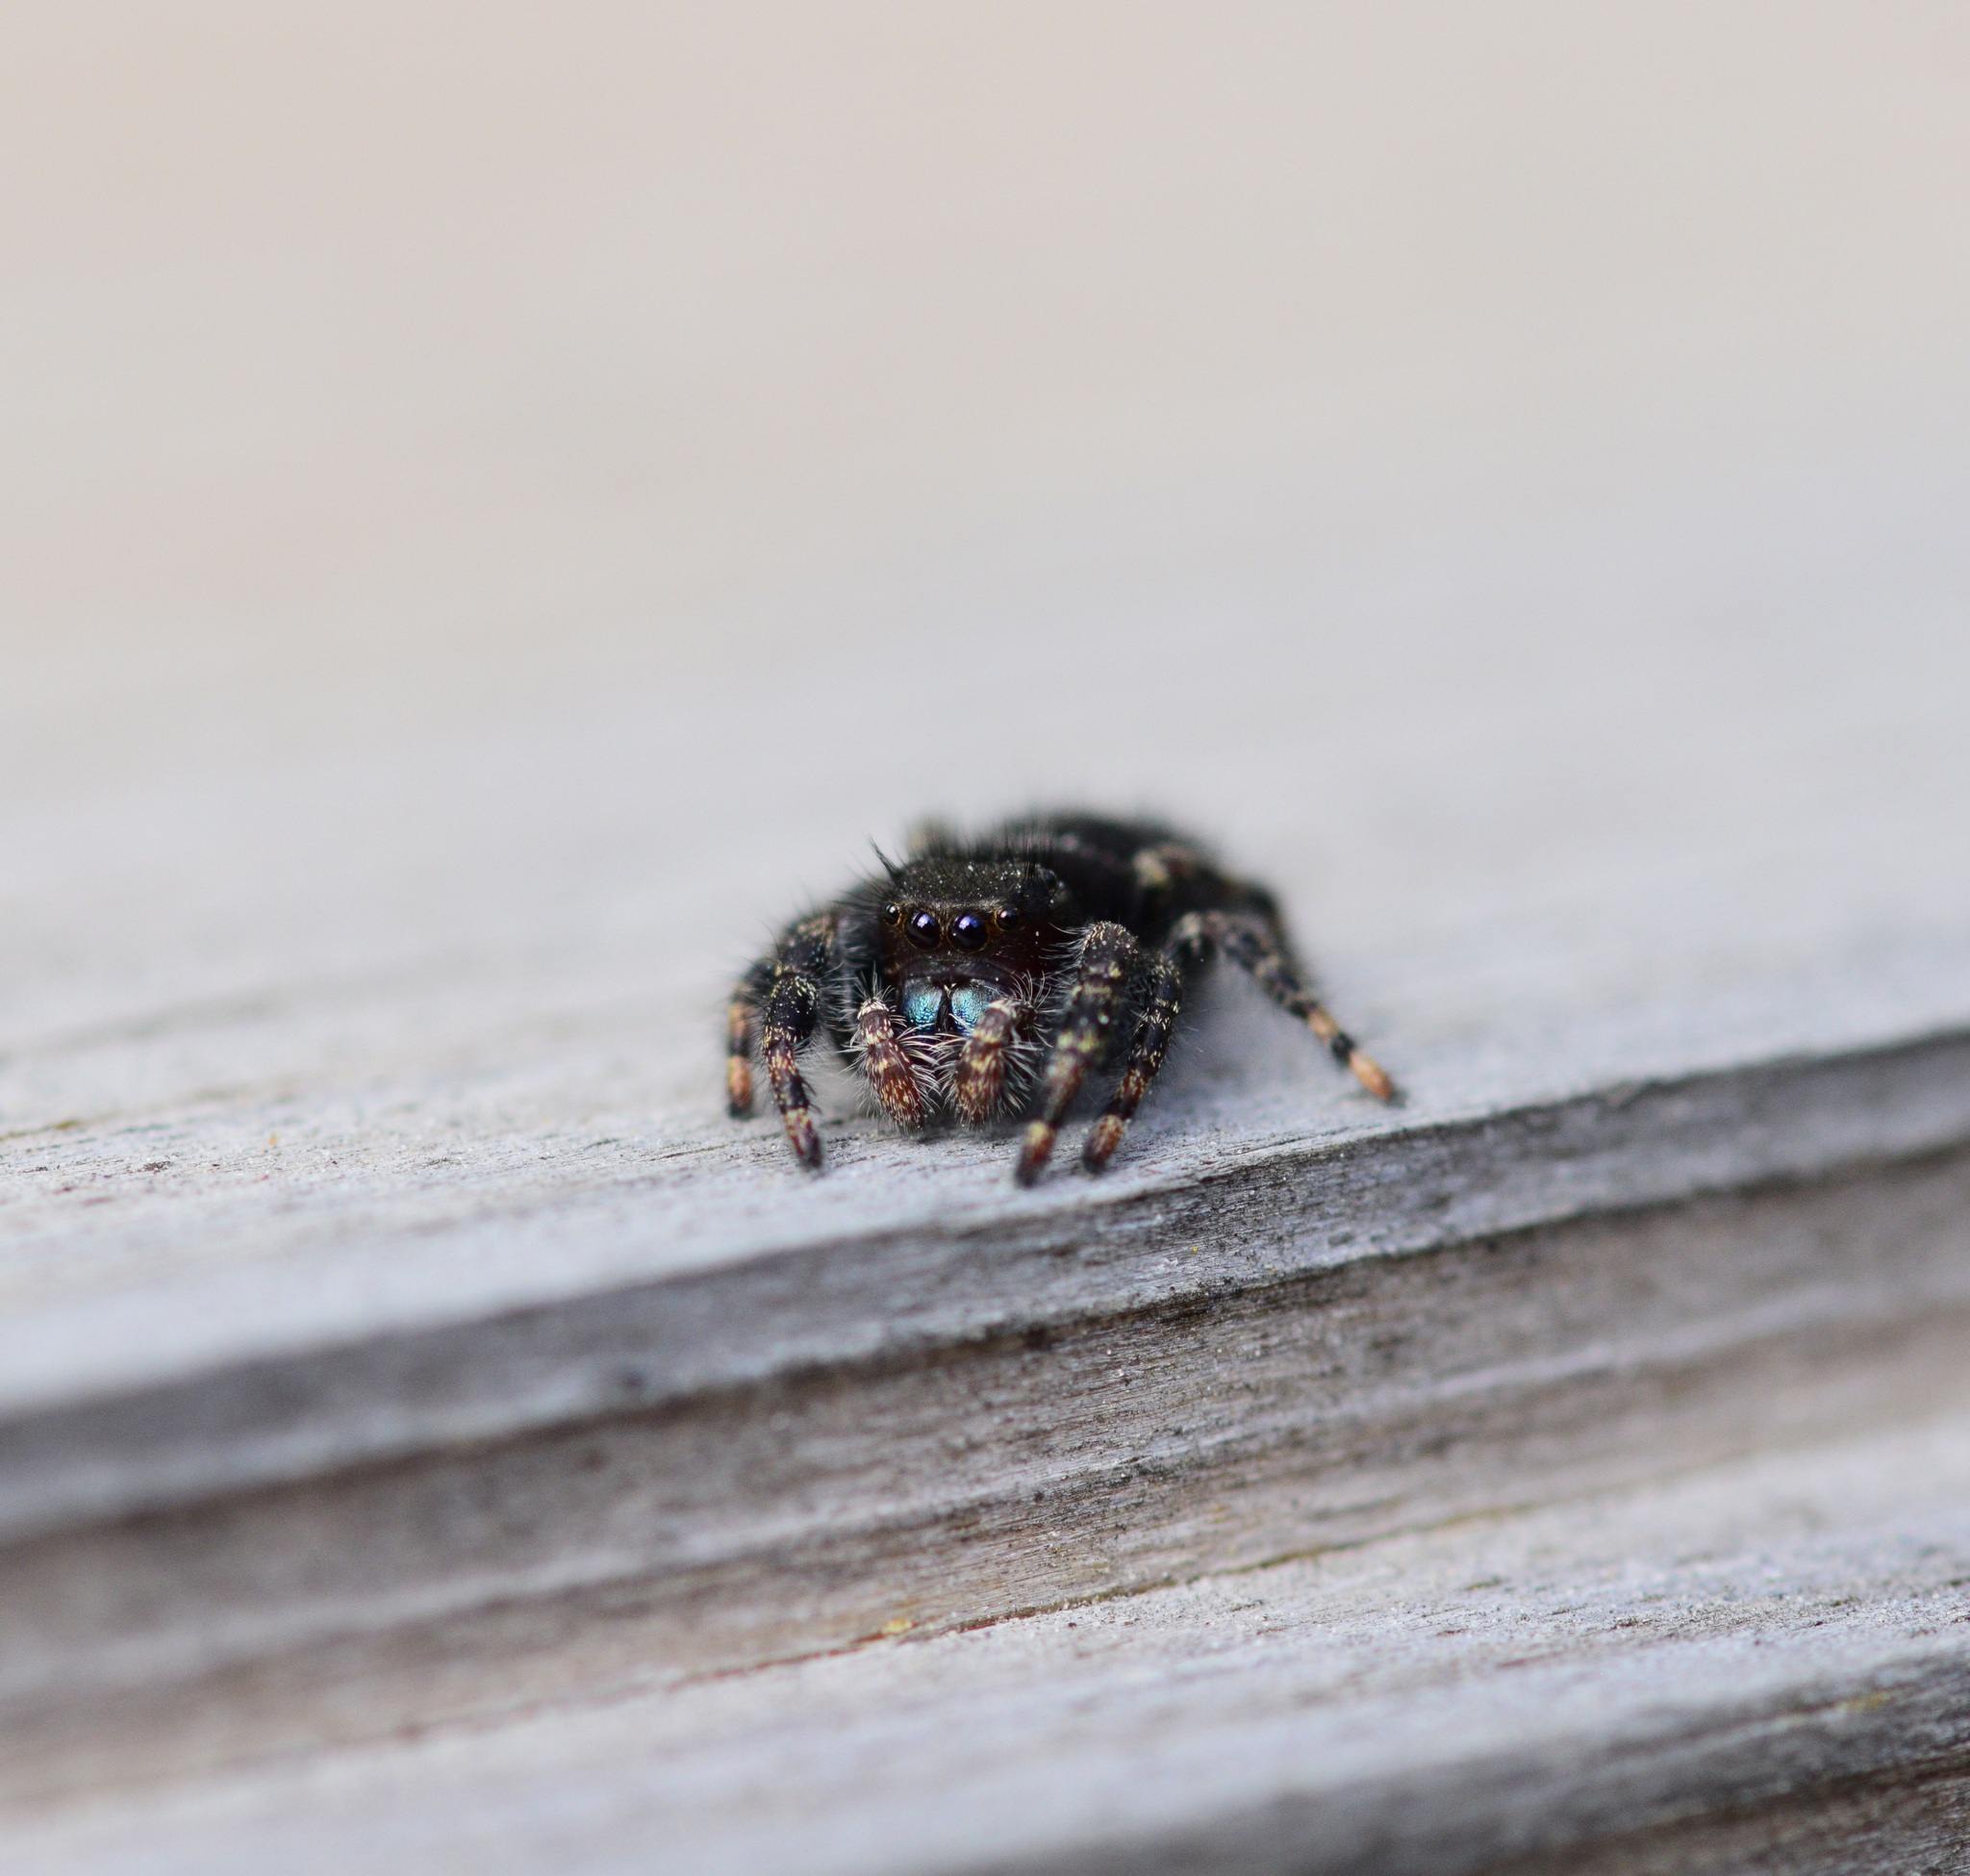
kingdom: Animalia
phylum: Arthropoda
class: Arachnida
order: Araneae
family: Salticidae
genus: Phidippus
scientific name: Phidippus audax
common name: Bold jumper
